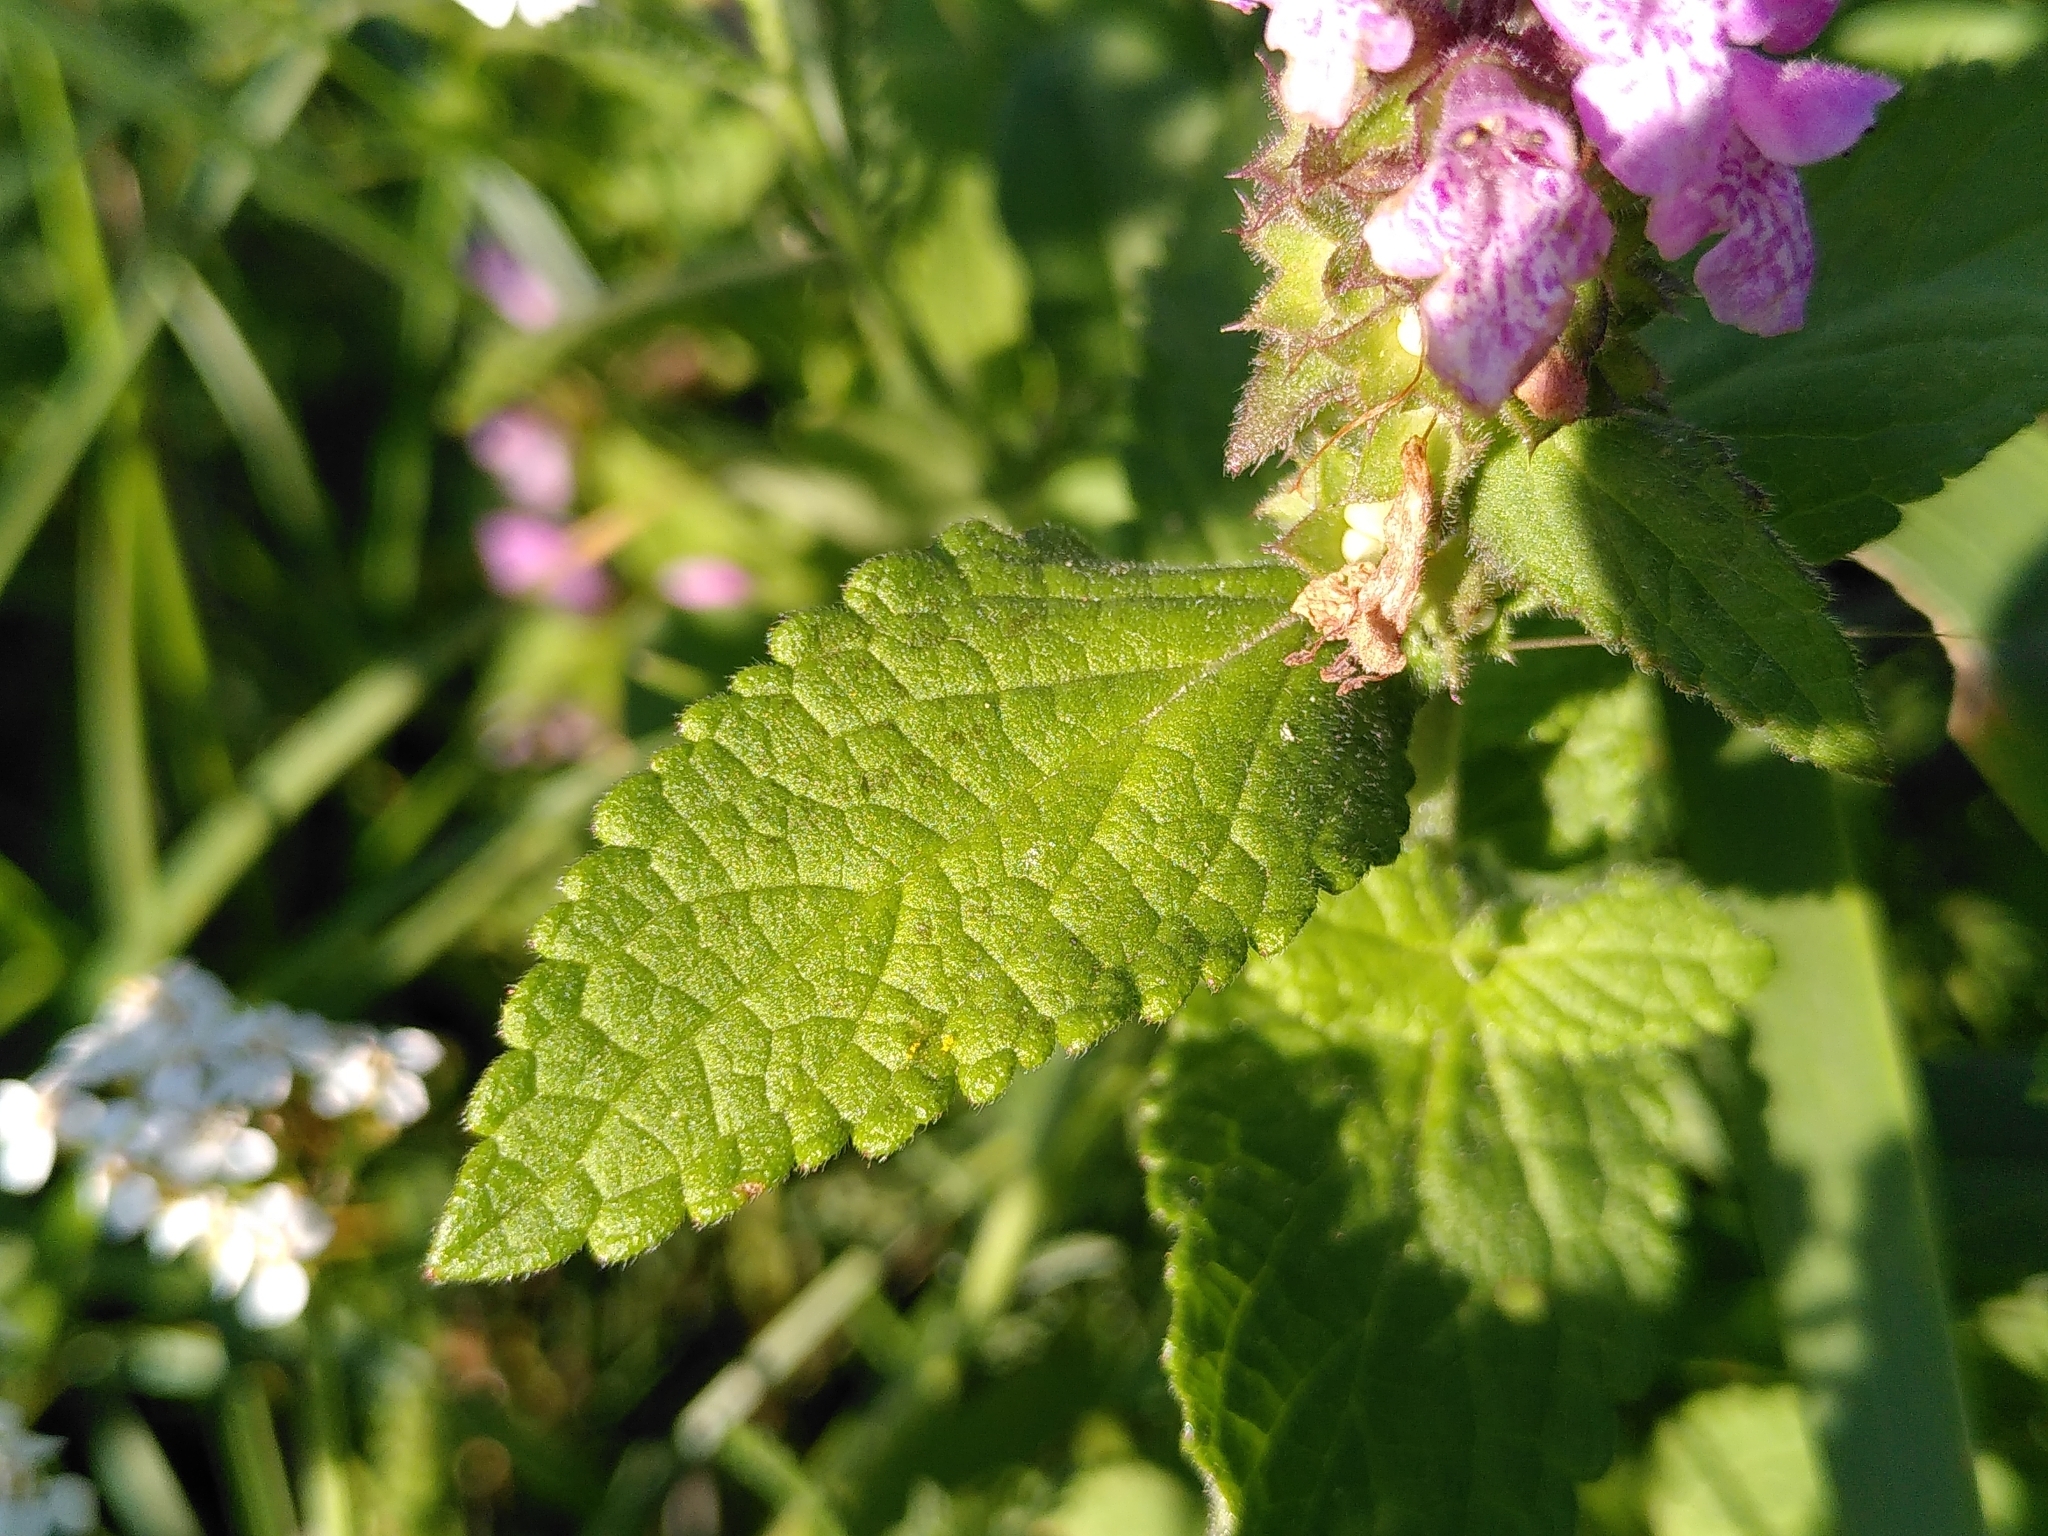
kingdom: Plantae
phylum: Tracheophyta
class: Magnoliopsida
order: Lamiales
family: Lamiaceae
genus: Stachys
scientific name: Stachys palustris
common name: Marsh woundwort
